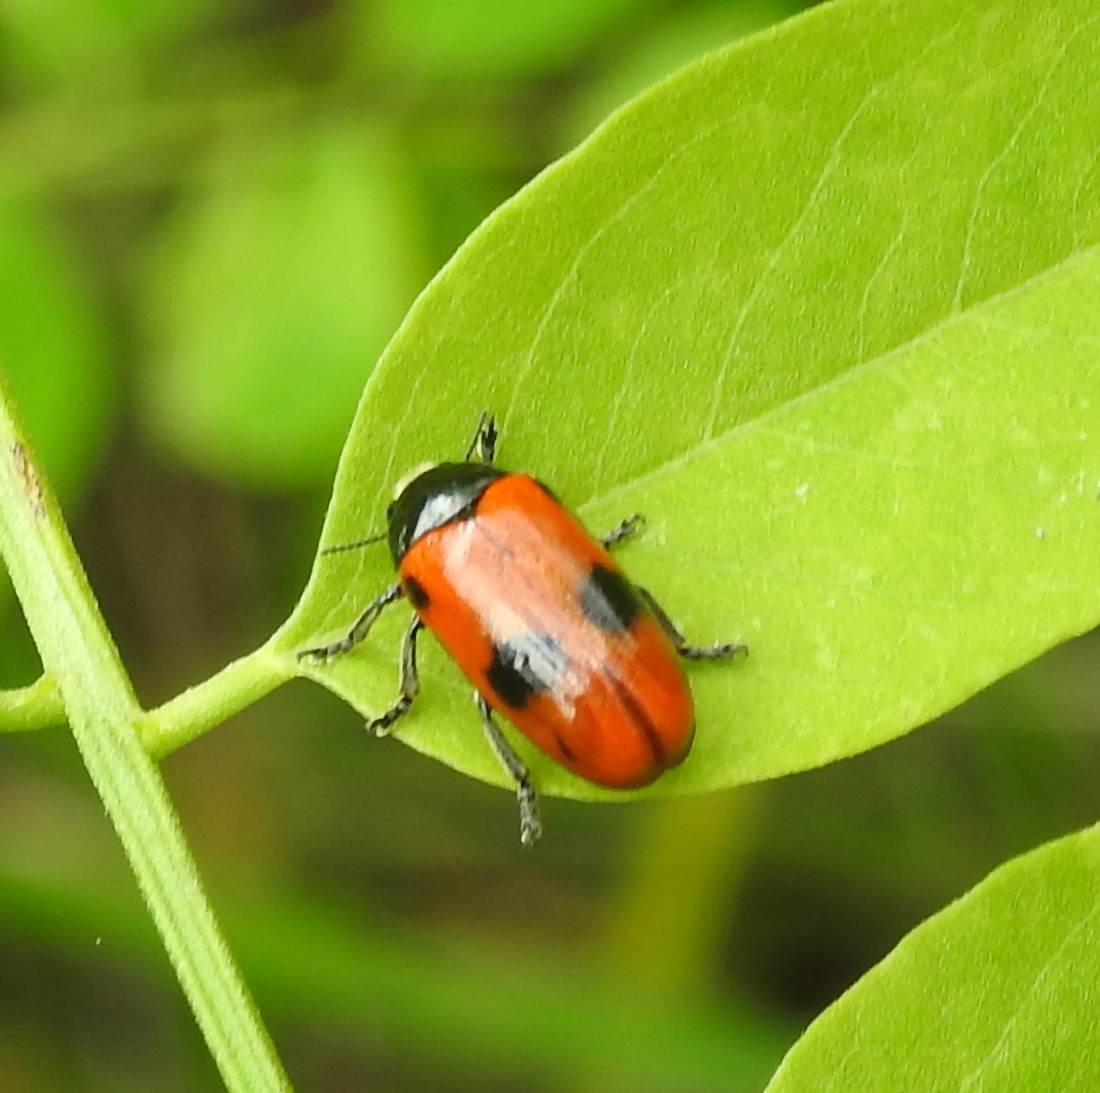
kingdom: Animalia
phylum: Arthropoda
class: Insecta
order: Coleoptera
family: Chrysomelidae
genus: Clytra
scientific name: Clytra laeviuscula
